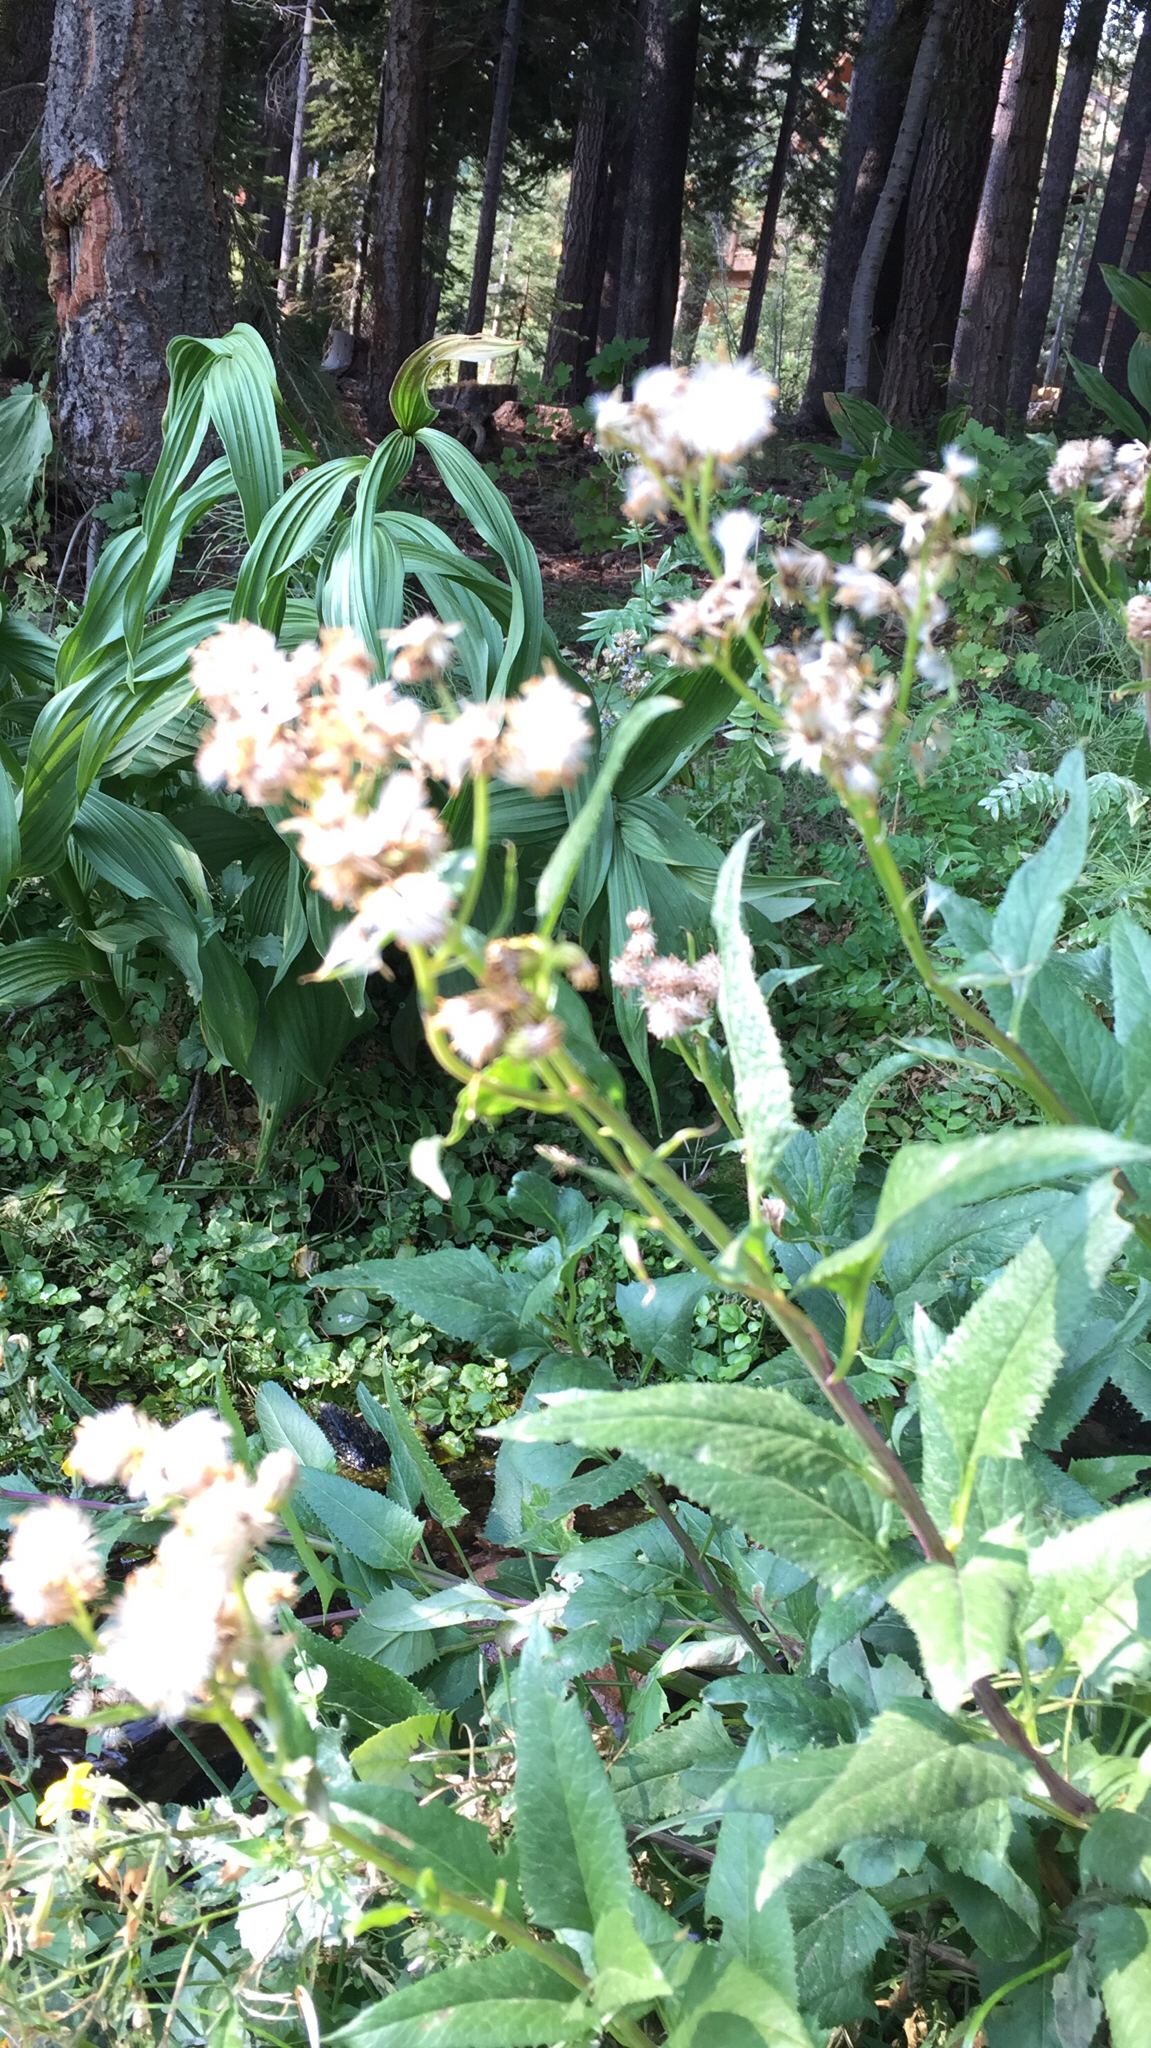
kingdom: Plantae
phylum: Tracheophyta
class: Magnoliopsida
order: Asterales
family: Asteraceae
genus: Senecio
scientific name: Senecio triangularis
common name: Arrowleaf butterweed
